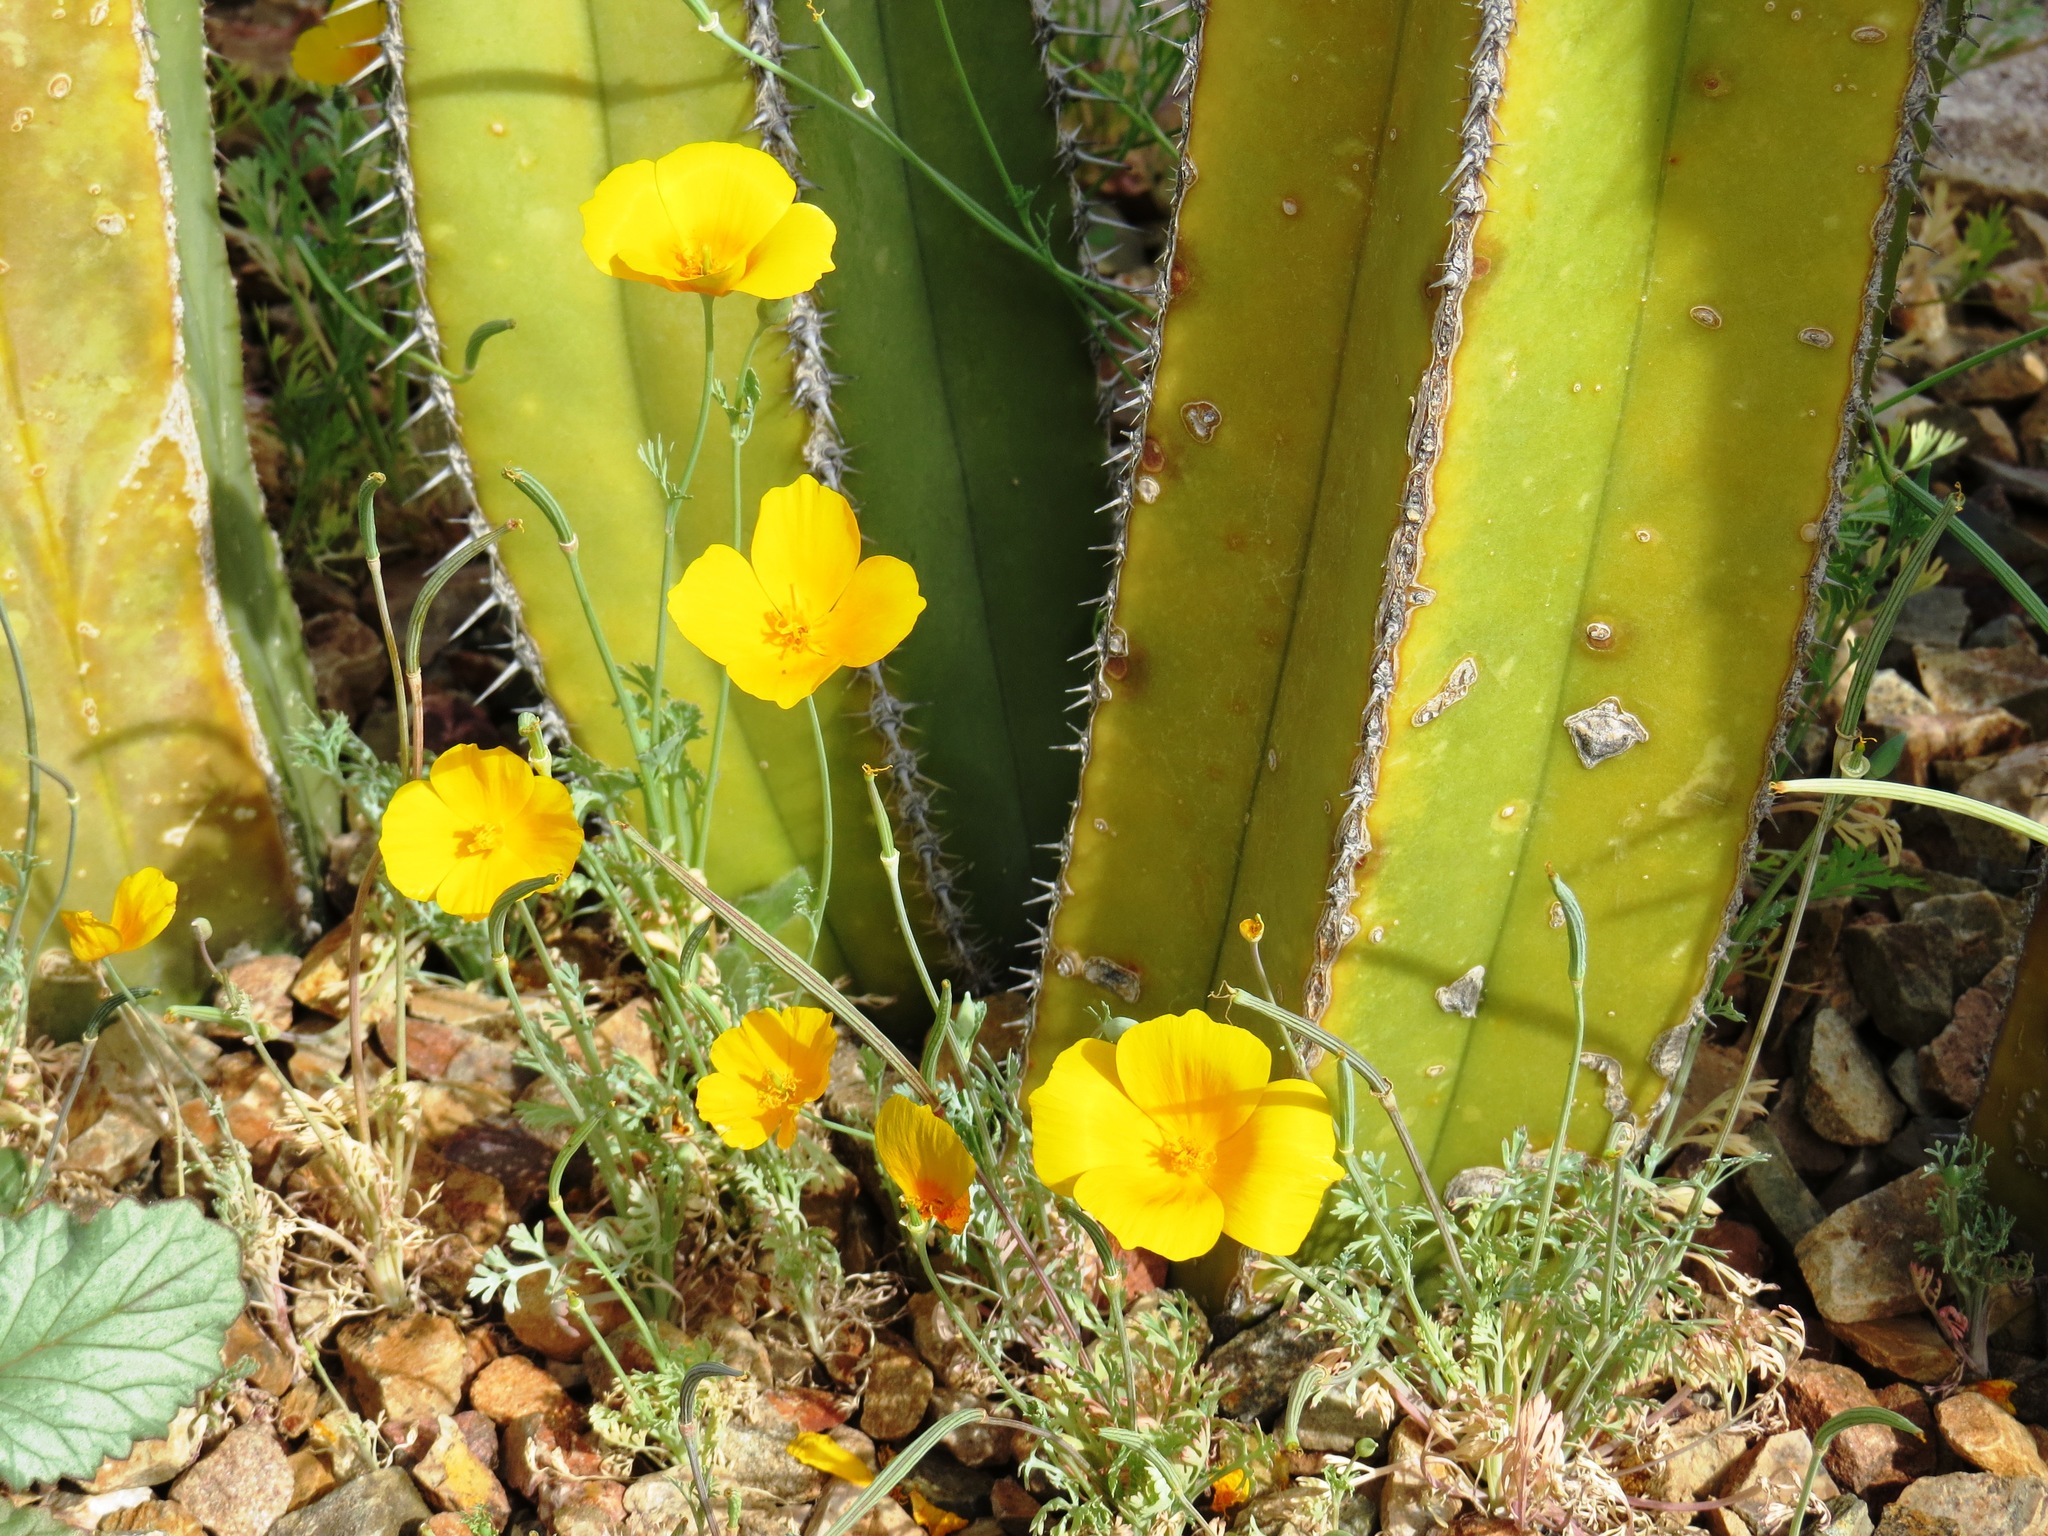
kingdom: Plantae
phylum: Tracheophyta
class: Magnoliopsida
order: Ranunculales
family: Papaveraceae
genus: Eschscholzia
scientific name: Eschscholzia californica
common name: California poppy
